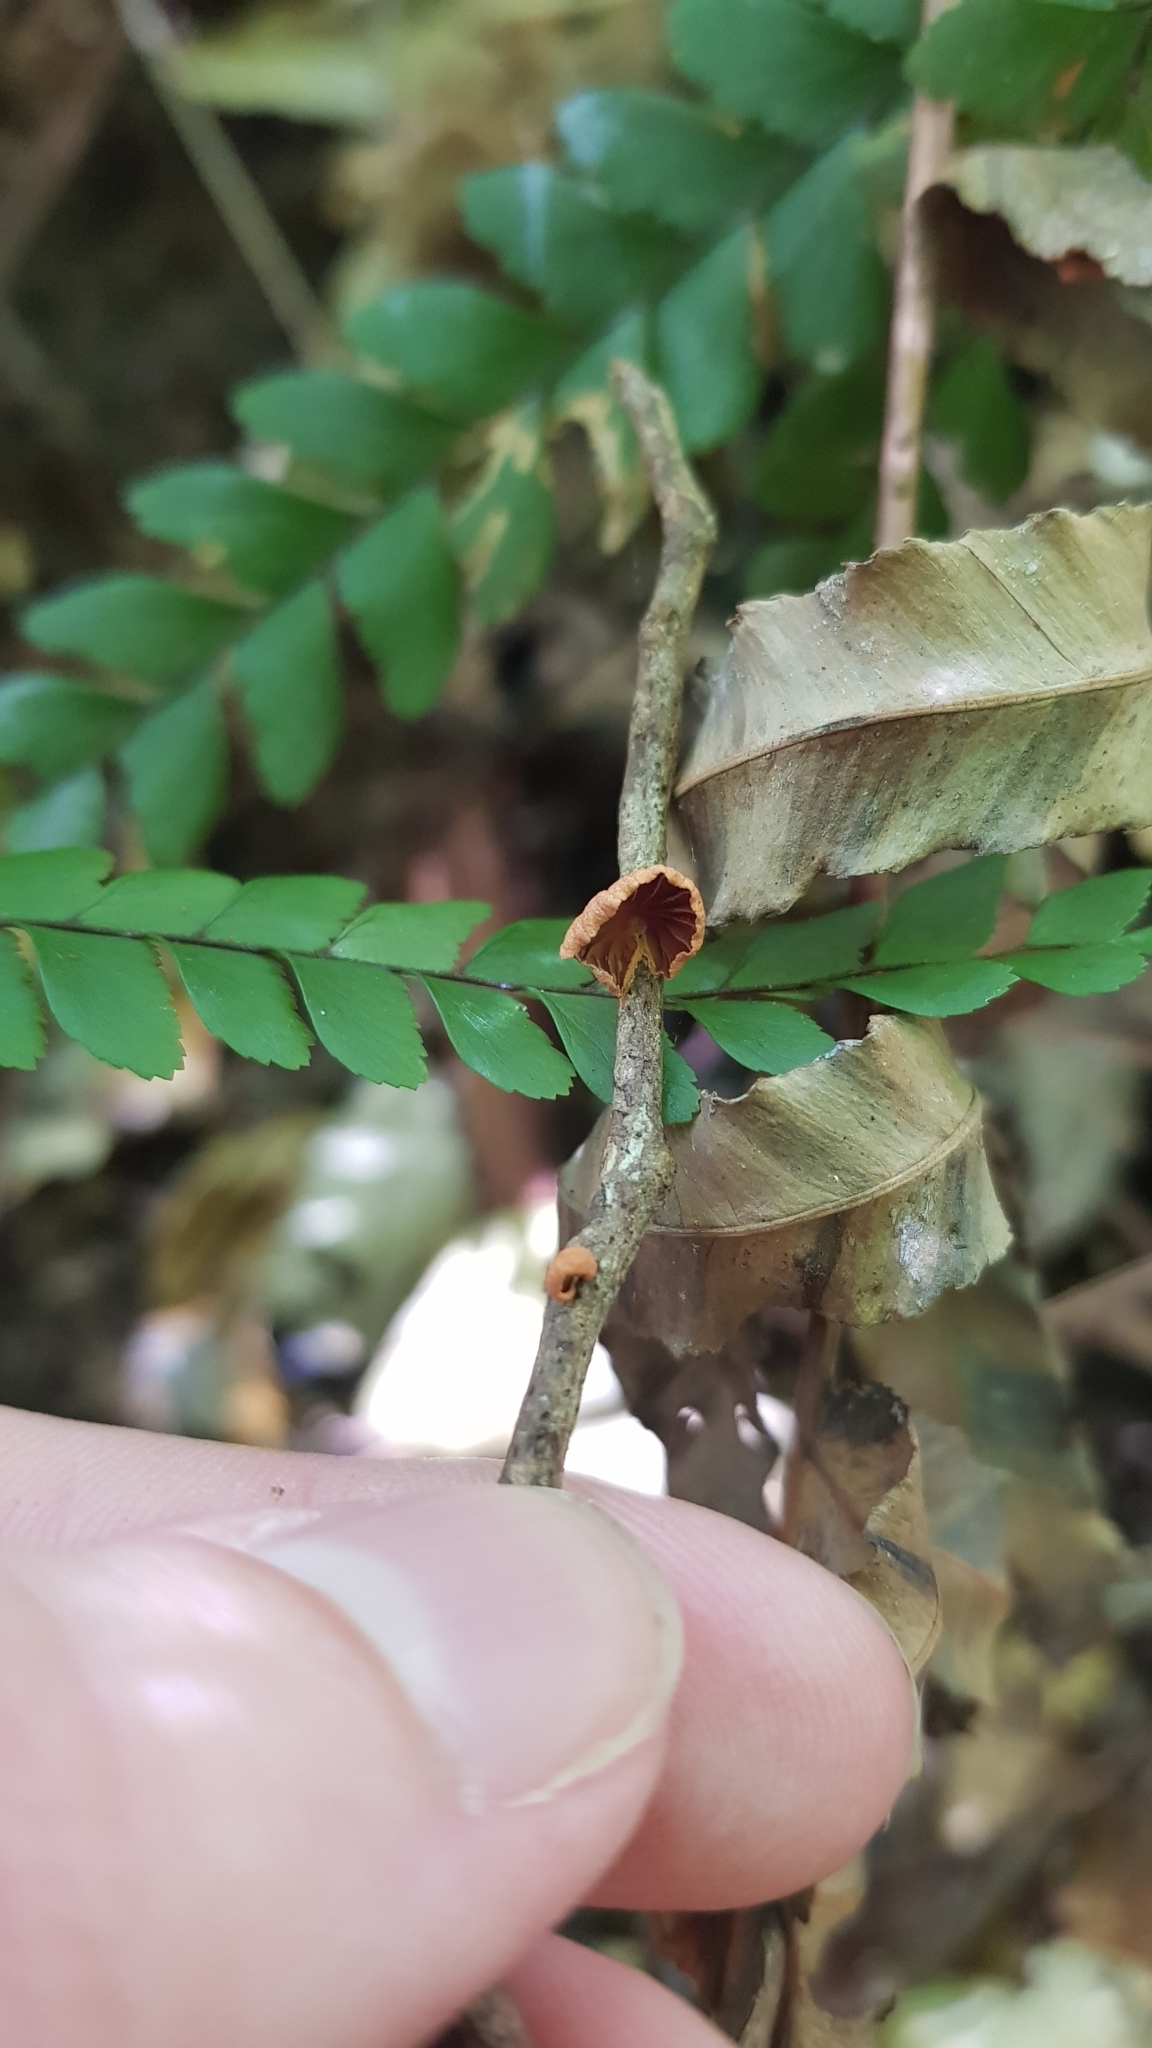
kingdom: Fungi
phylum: Basidiomycota
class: Agaricomycetes
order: Agaricales
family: Omphalotaceae
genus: Anthracophyllum
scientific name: Anthracophyllum archeri
